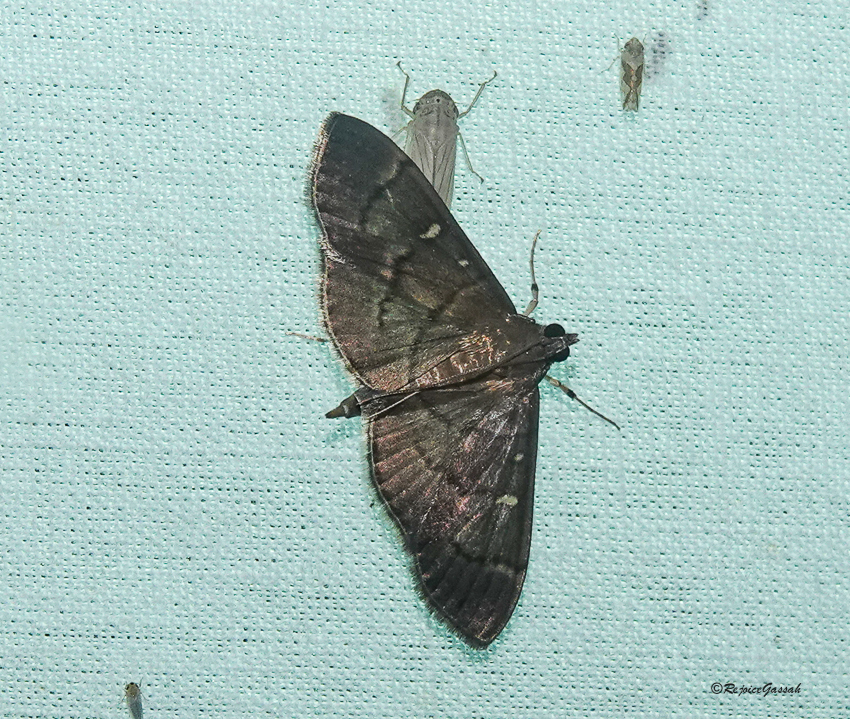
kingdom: Animalia
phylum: Arthropoda
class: Insecta
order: Lepidoptera
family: Crambidae
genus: Syllepte
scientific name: Syllepte
